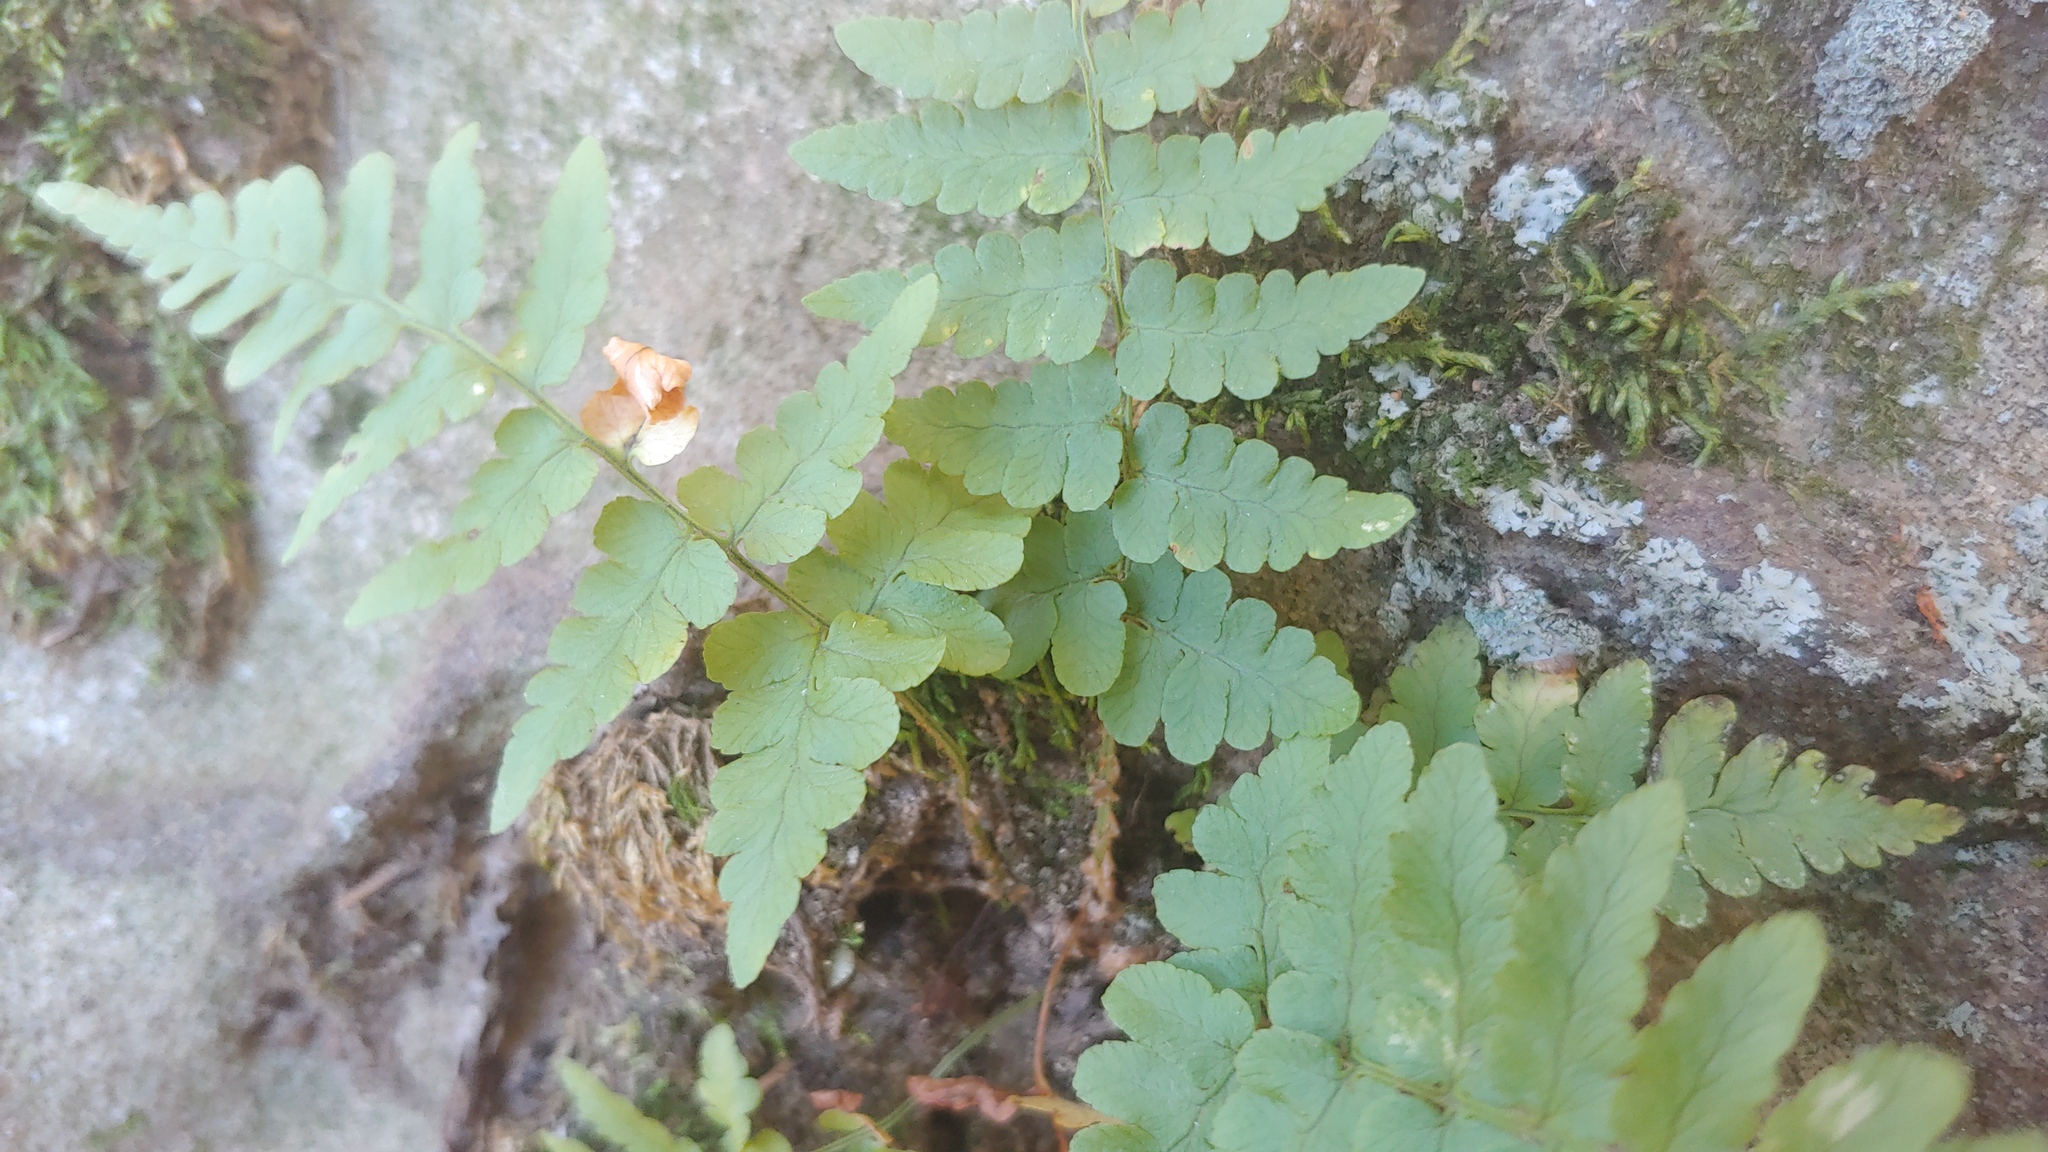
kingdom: Plantae
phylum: Tracheophyta
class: Polypodiopsida
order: Polypodiales
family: Dryopteridaceae
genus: Dryopteris
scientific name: Dryopteris marginalis
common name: Marginal wood fern
